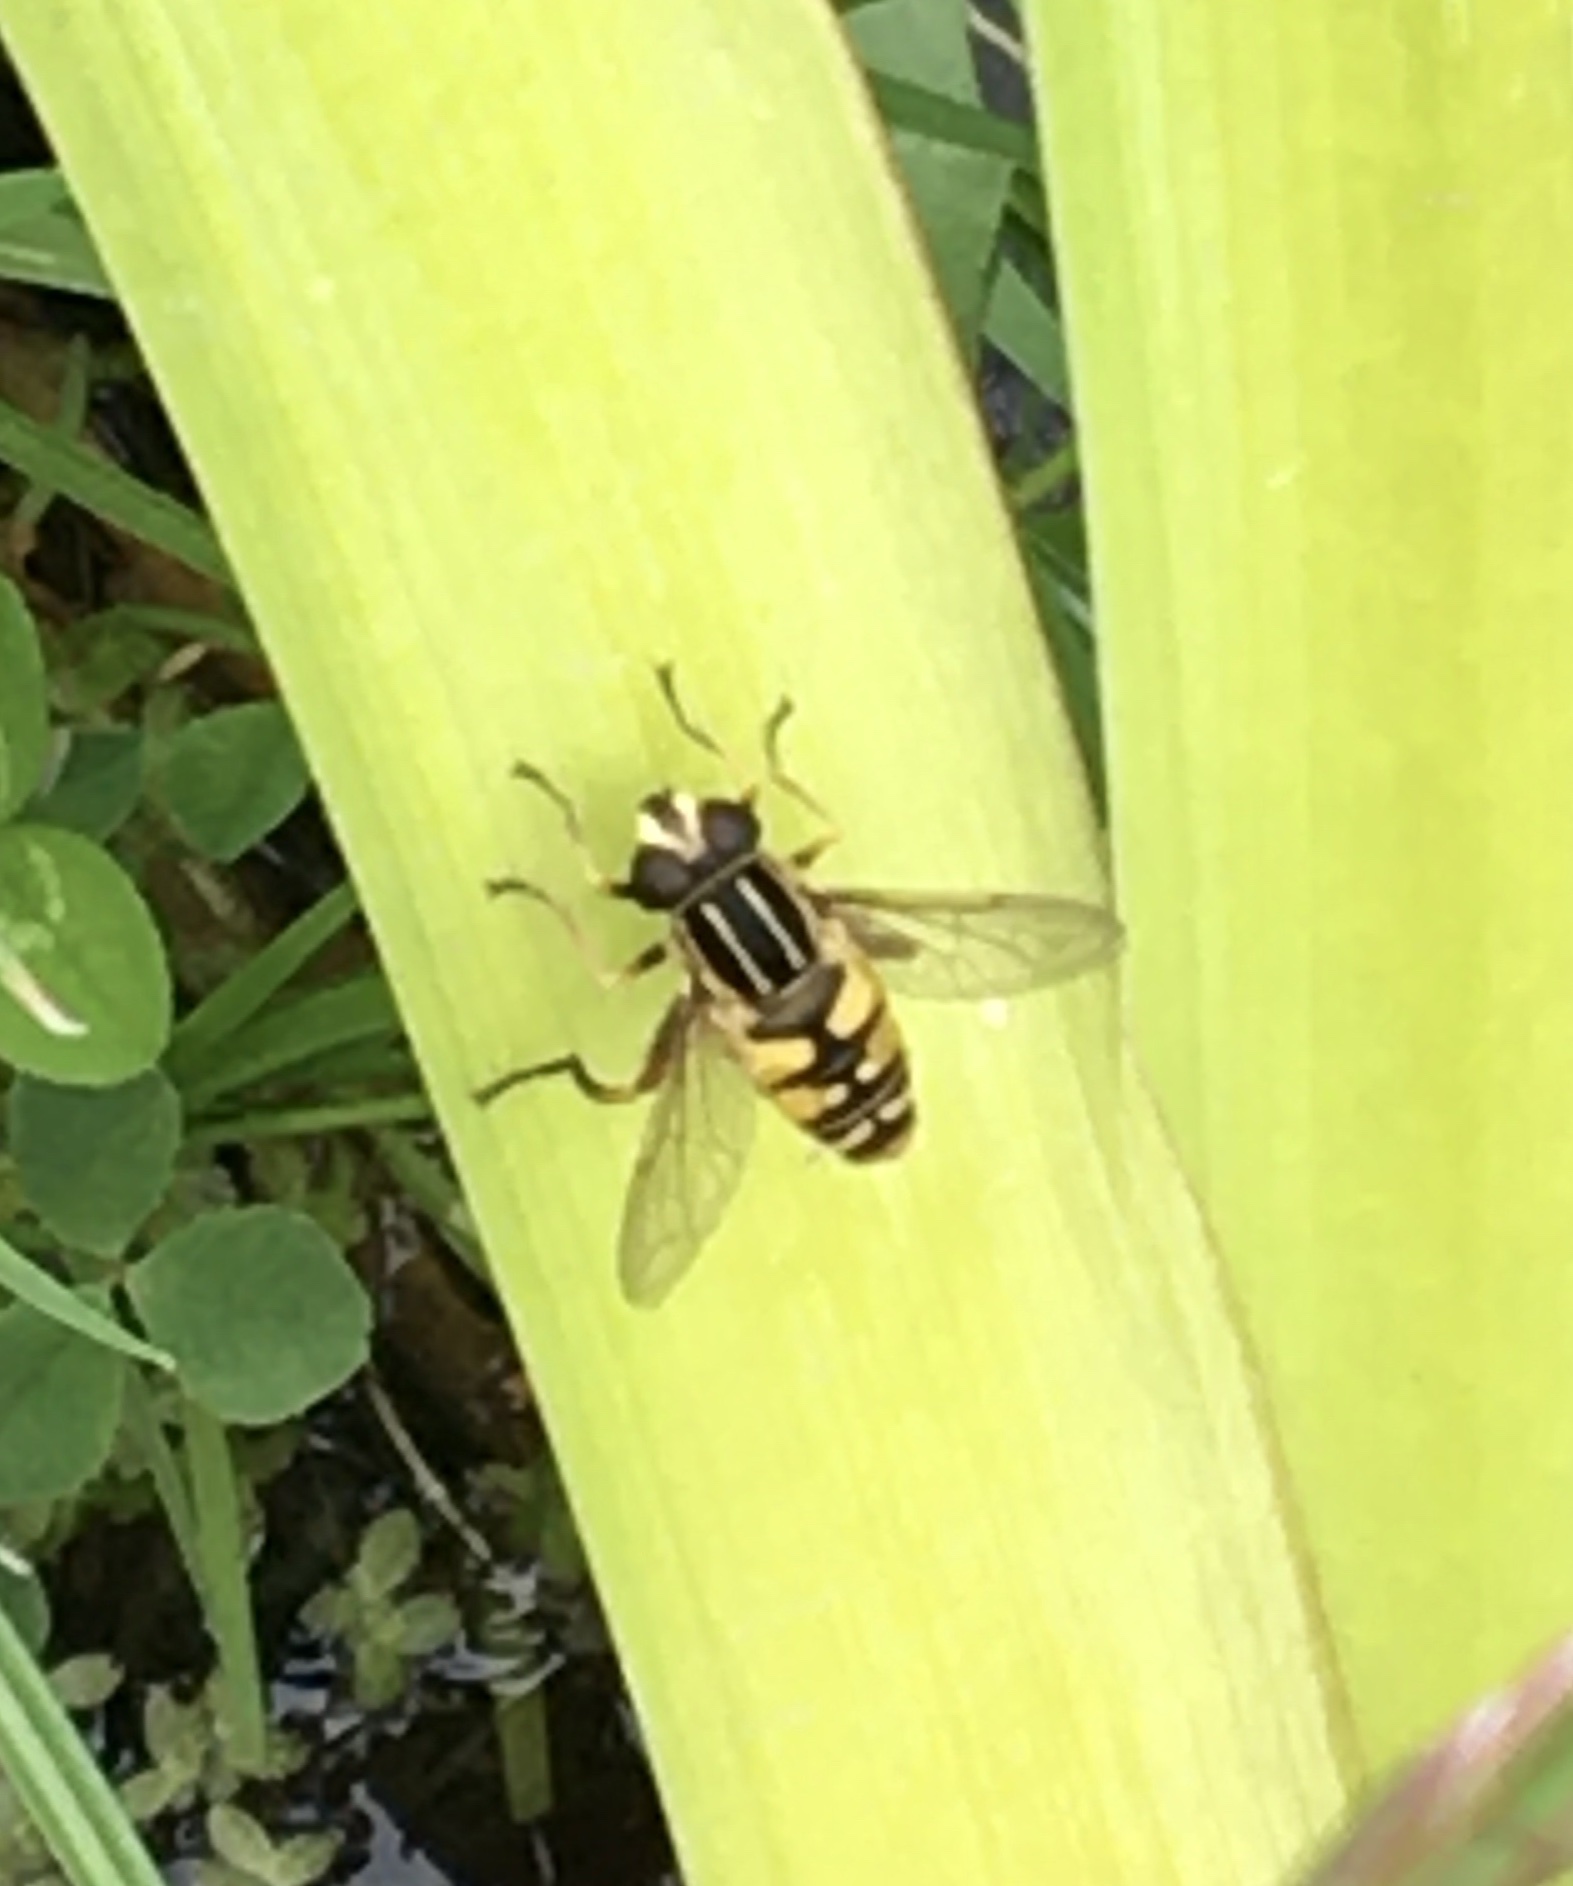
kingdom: Animalia
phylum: Arthropoda
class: Insecta
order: Diptera
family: Syrphidae
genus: Helophilus
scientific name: Helophilus pendulus
